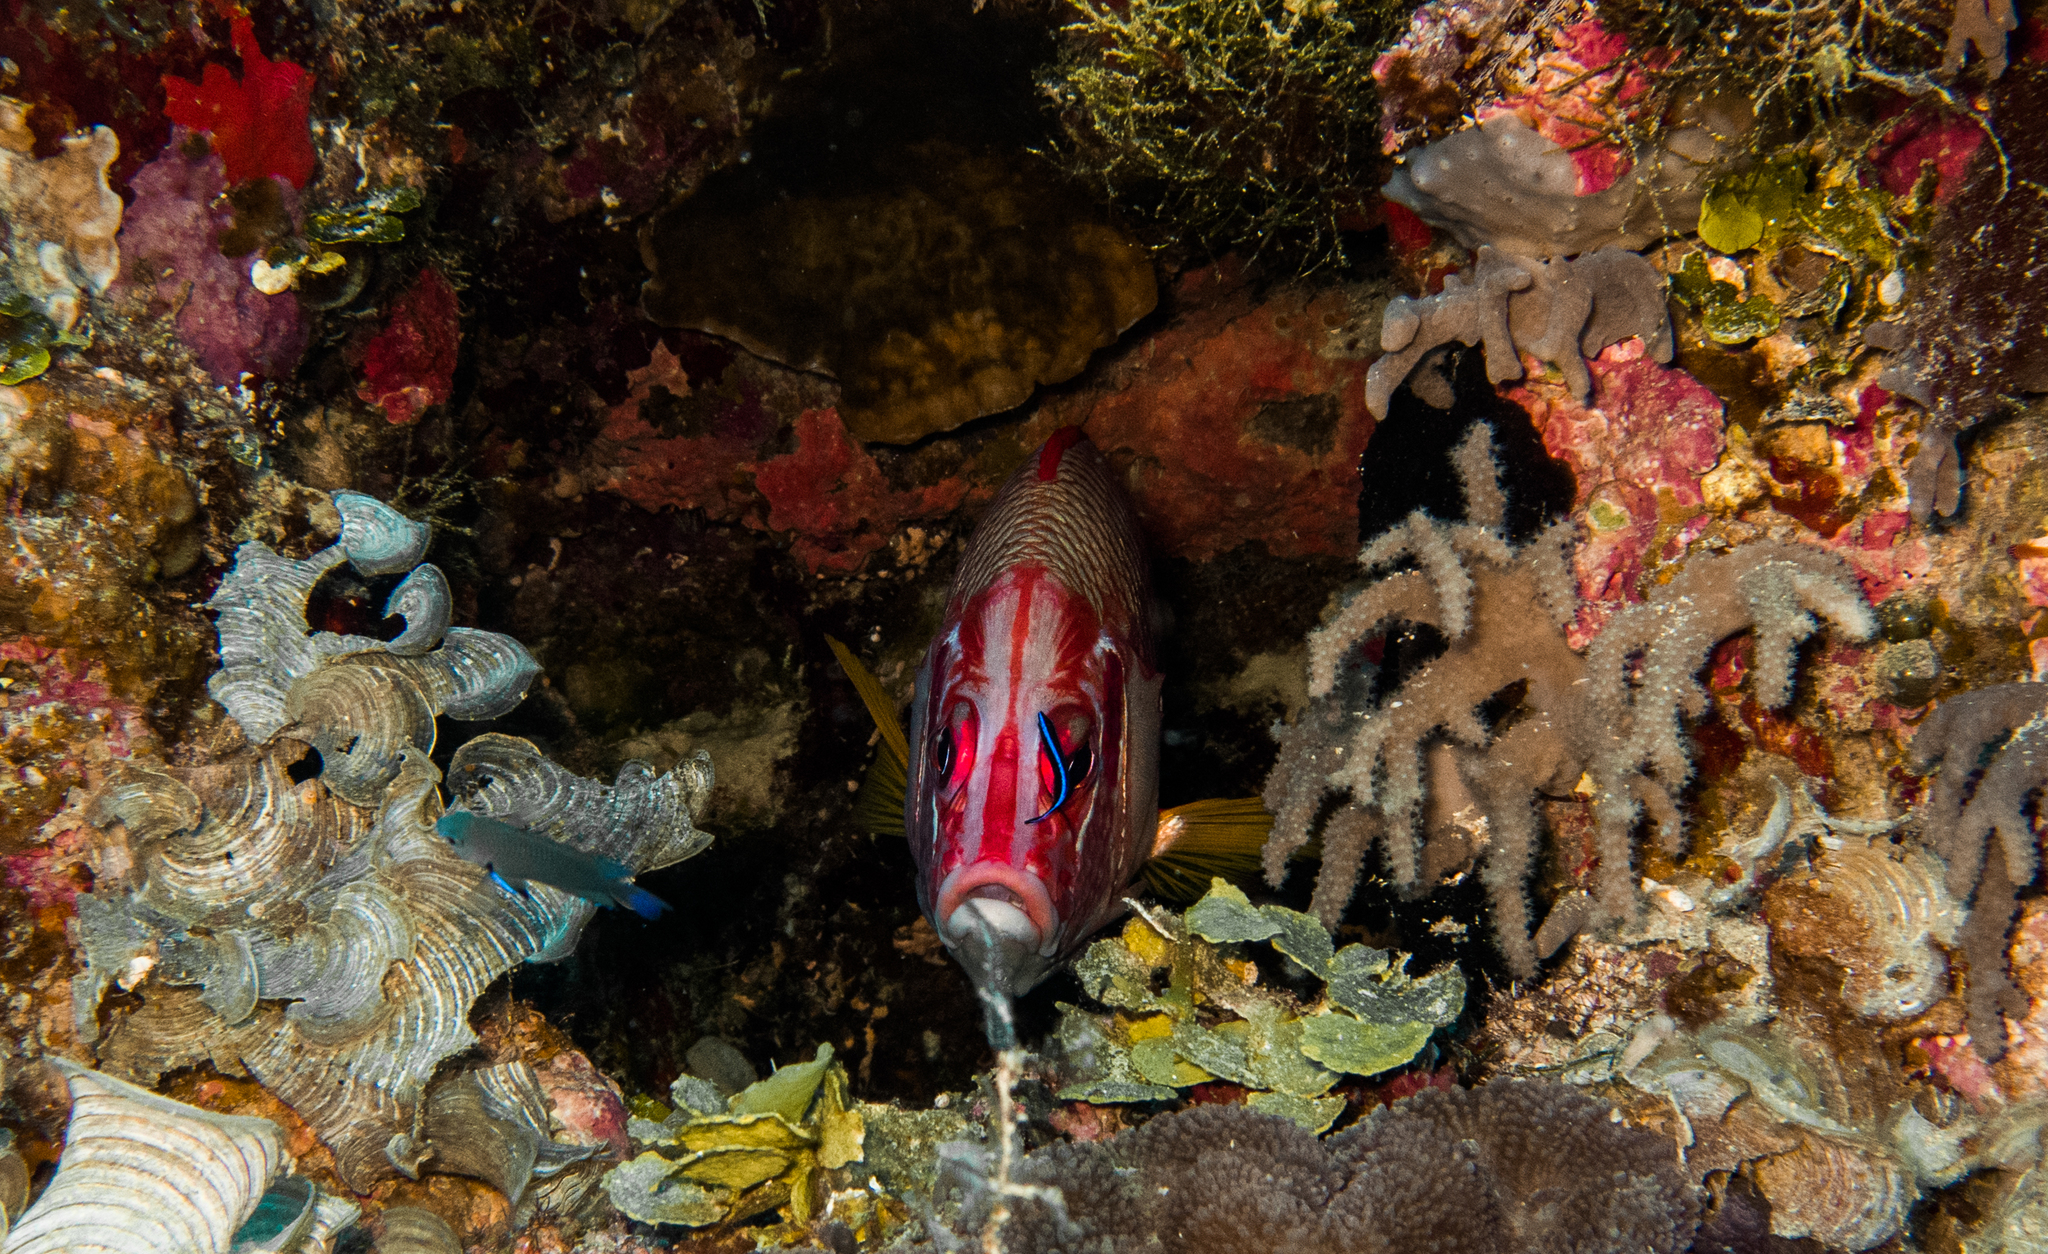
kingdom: Animalia
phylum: Chordata
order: Beryciformes
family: Holocentridae
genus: Sargocentron
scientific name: Sargocentron spiniferum
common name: Giant squirrelfish
